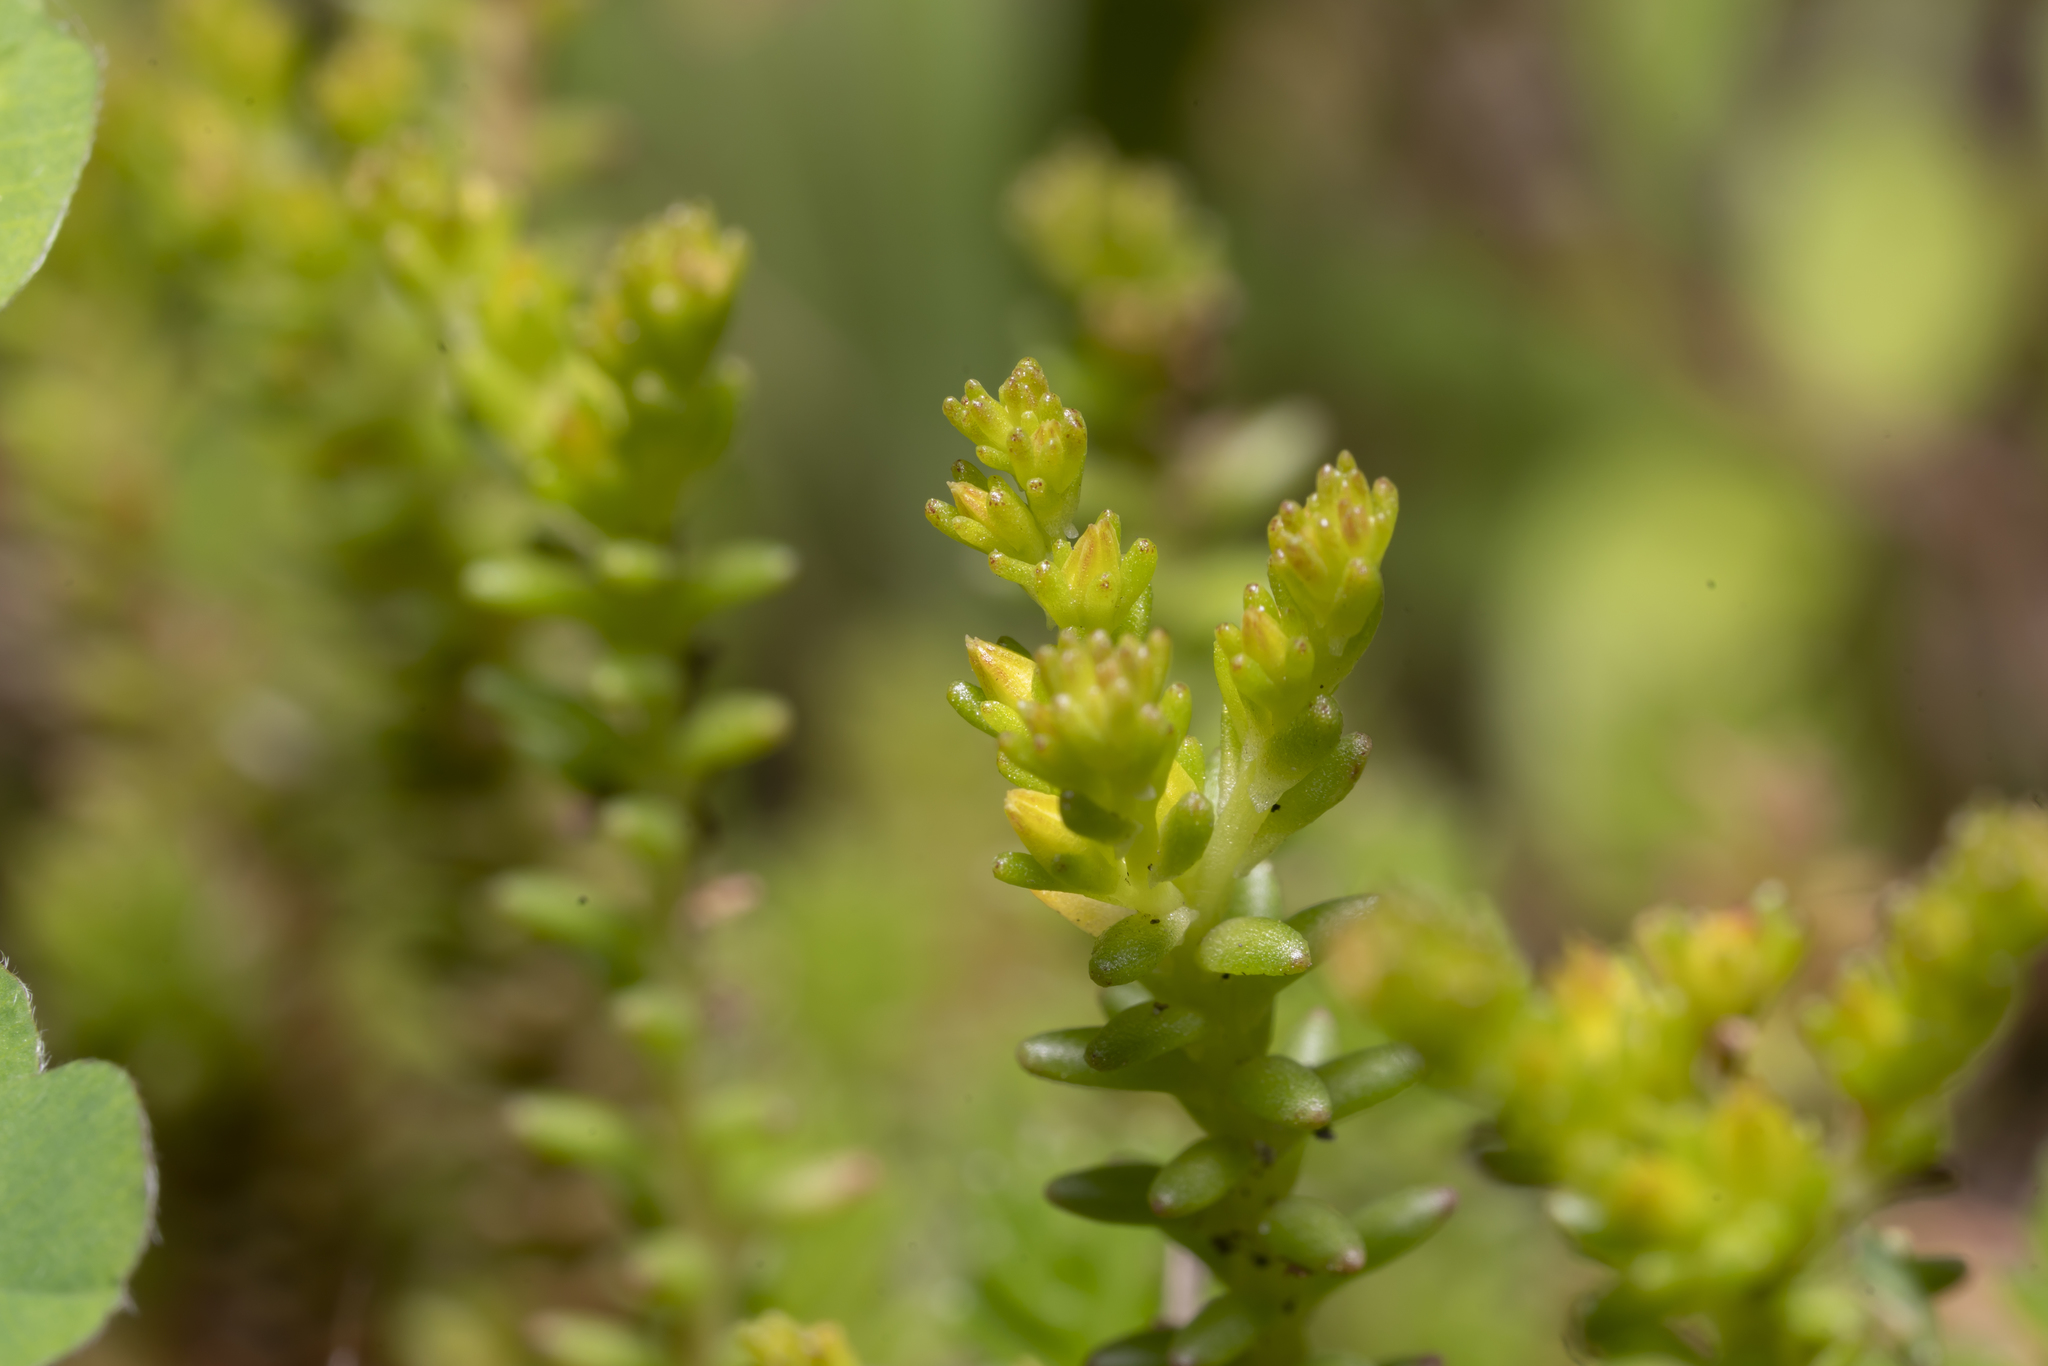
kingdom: Plantae
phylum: Tracheophyta
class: Magnoliopsida
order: Saxifragales
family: Crassulaceae
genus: Sedum
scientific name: Sedum sexangulare
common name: Tasteless stonecrop
